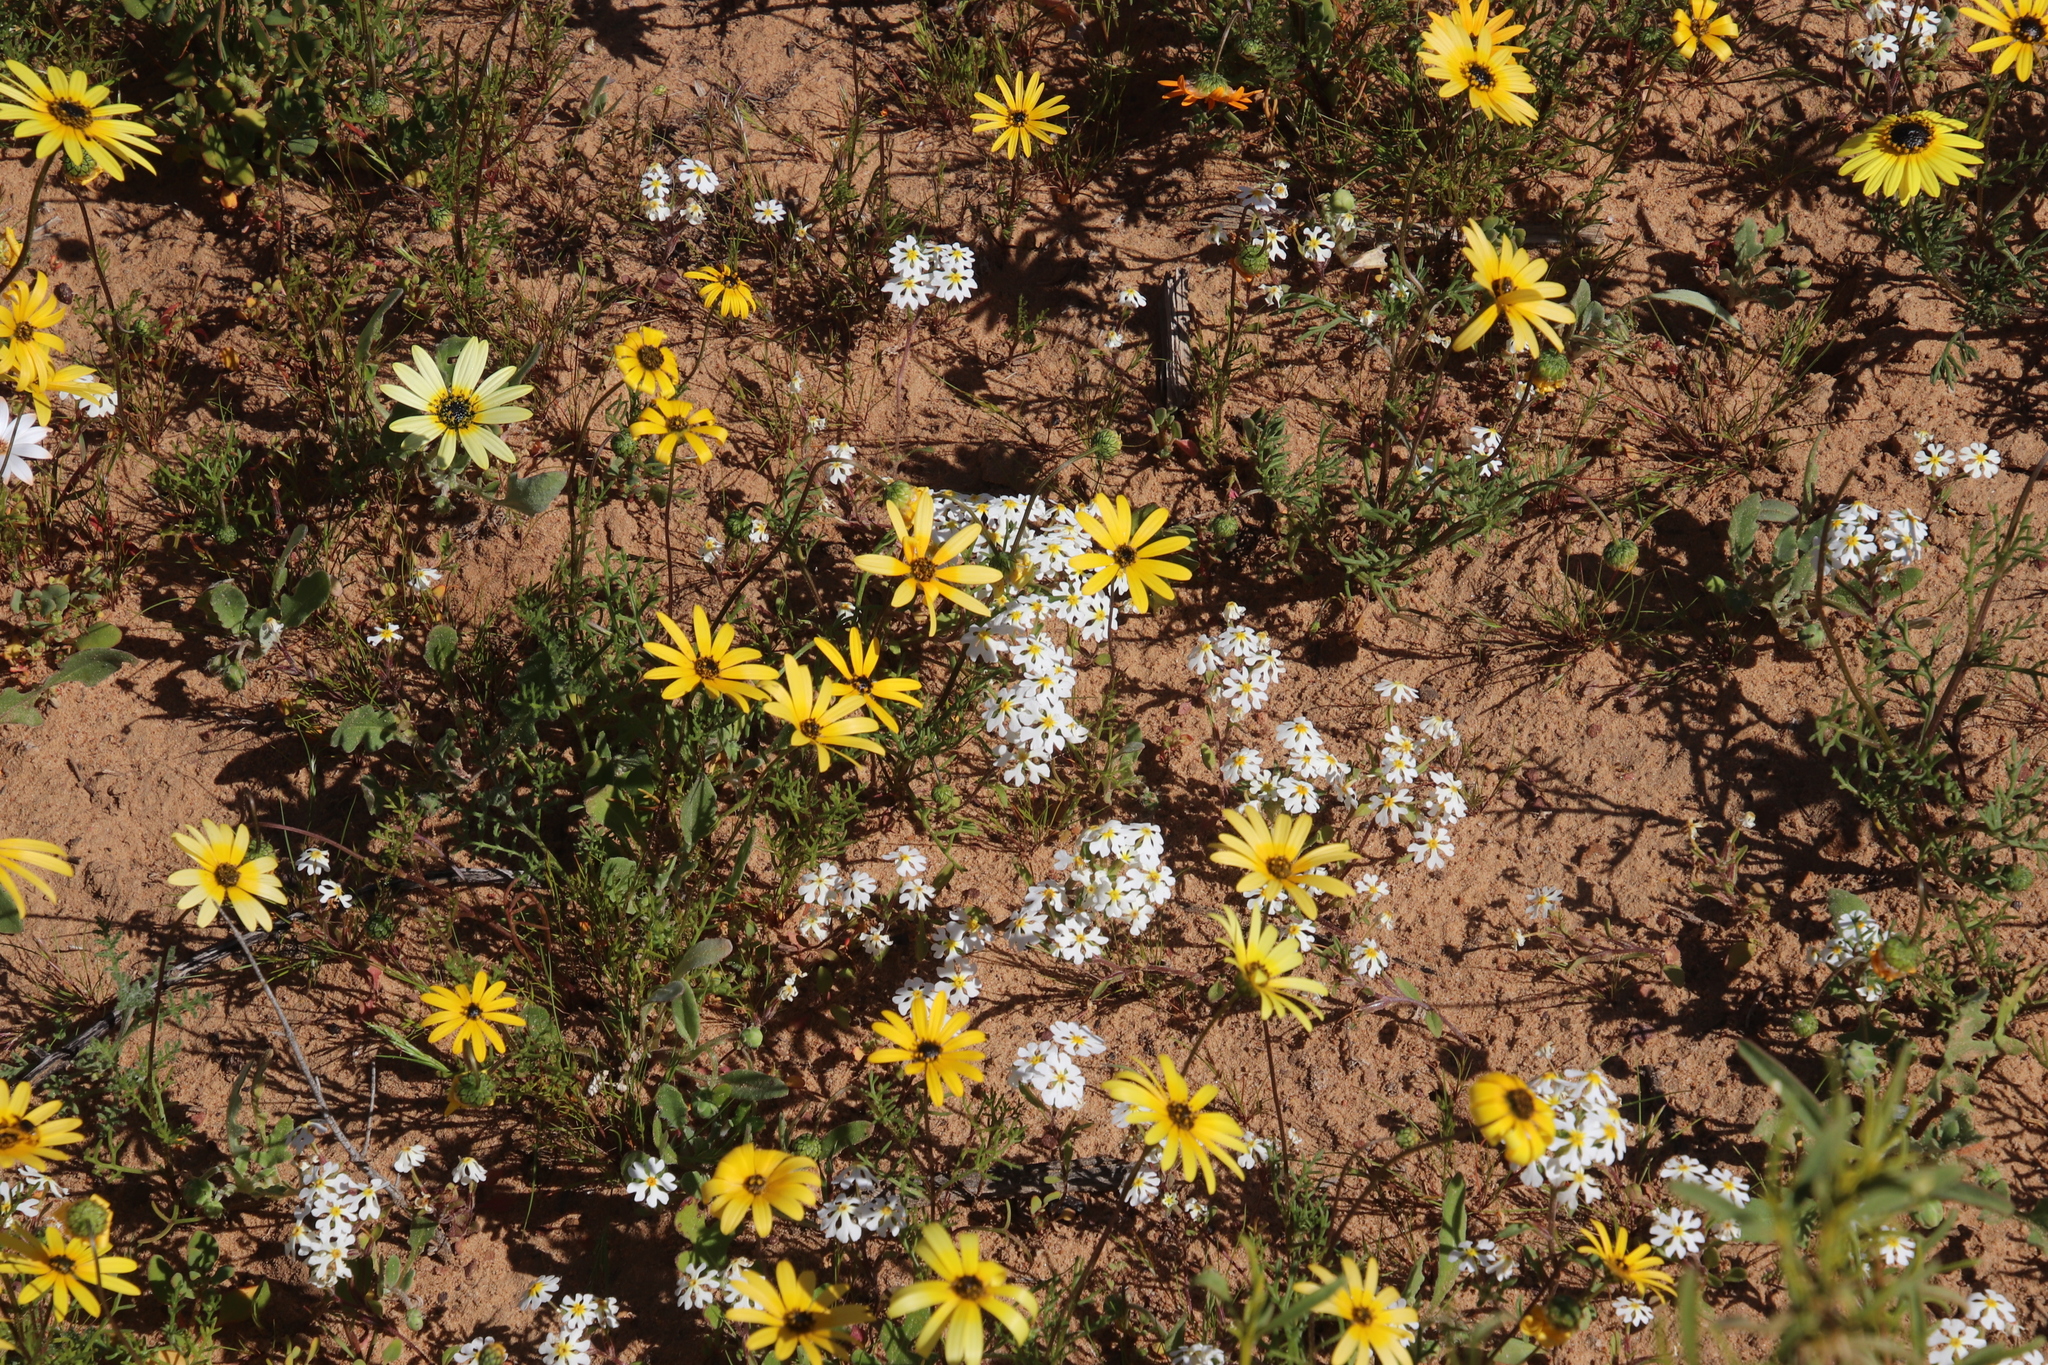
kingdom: Plantae
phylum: Tracheophyta
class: Magnoliopsida
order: Lamiales
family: Scrophulariaceae
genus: Zaluzianskya
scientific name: Zaluzianskya affinis
